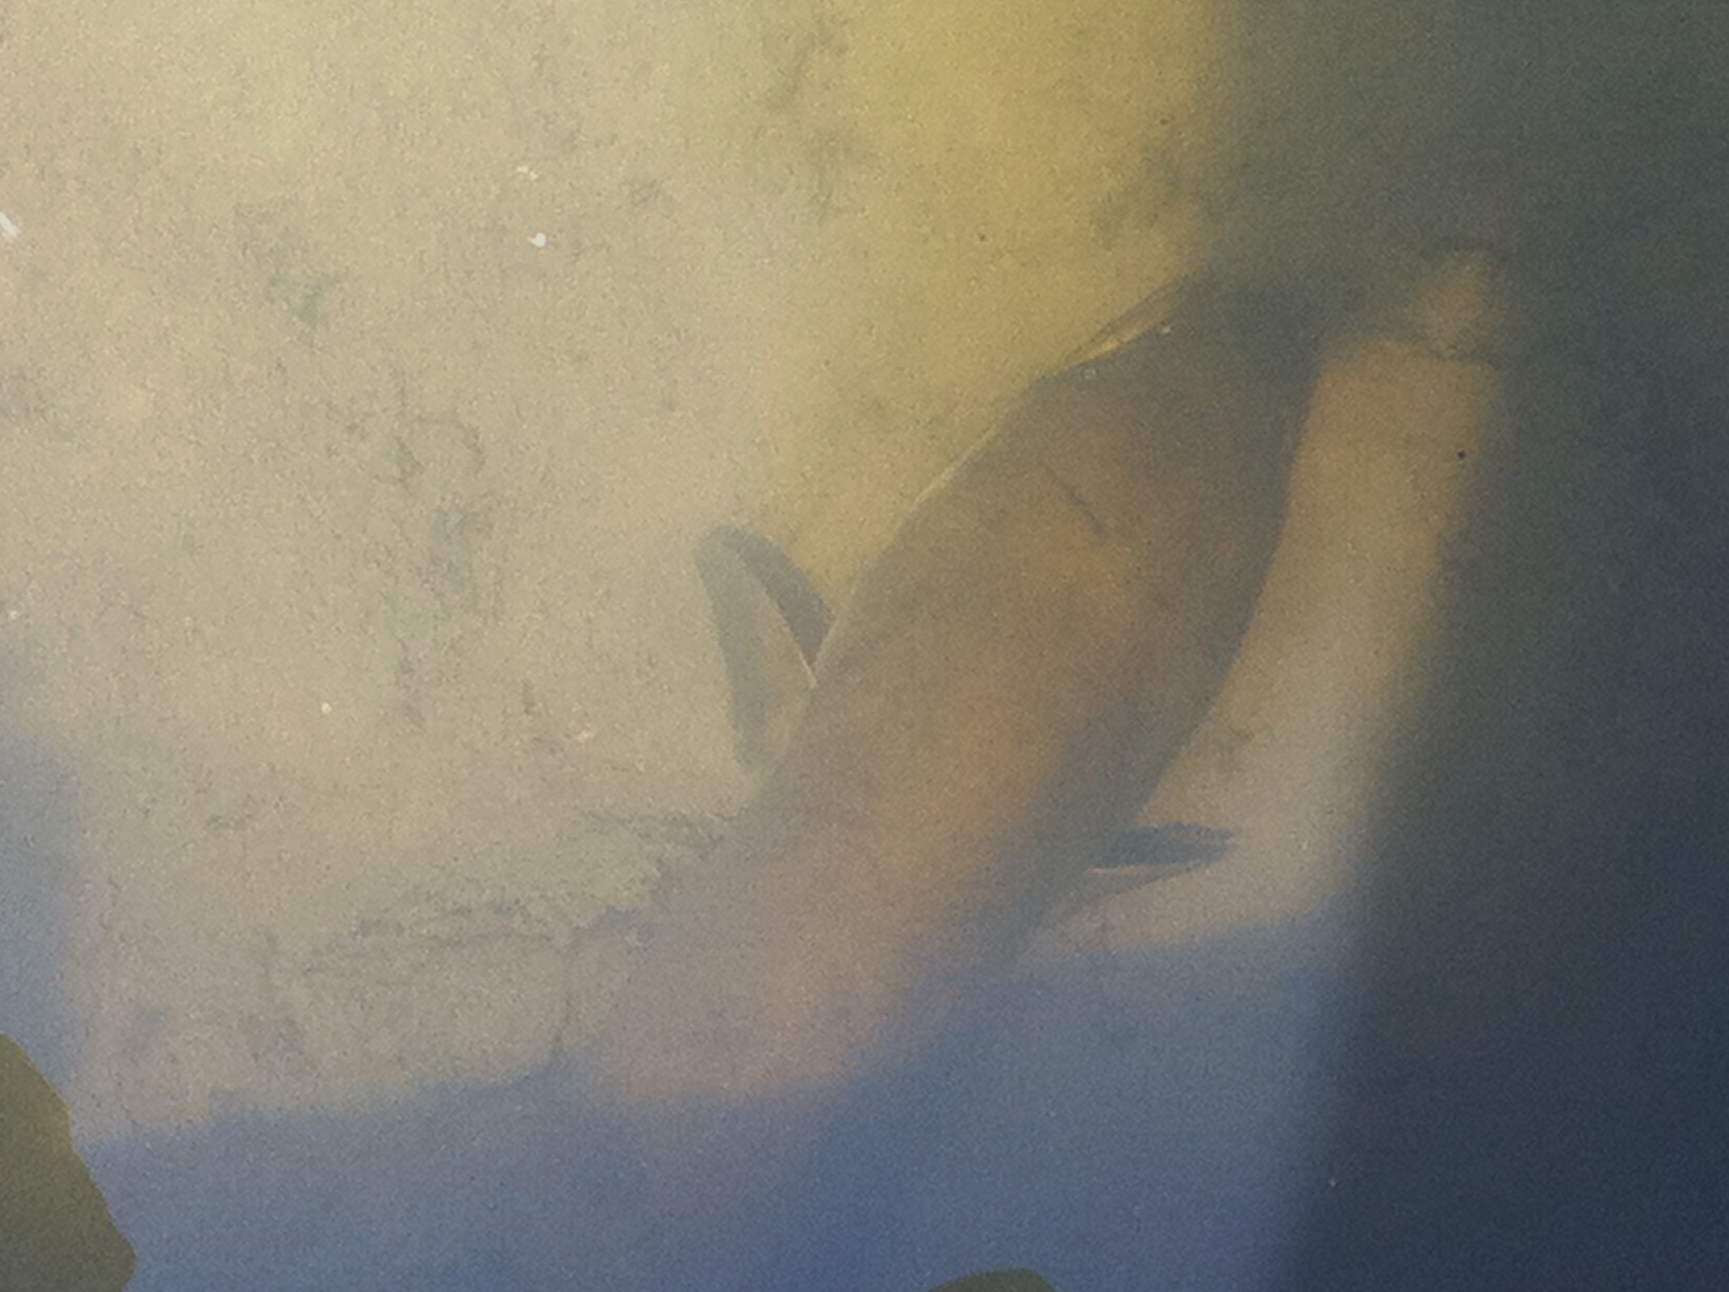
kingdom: Animalia
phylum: Chordata
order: Anguilliformes
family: Anguillidae
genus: Anguilla
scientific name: Anguilla dieffenbachii
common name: New zealand longfin eel
